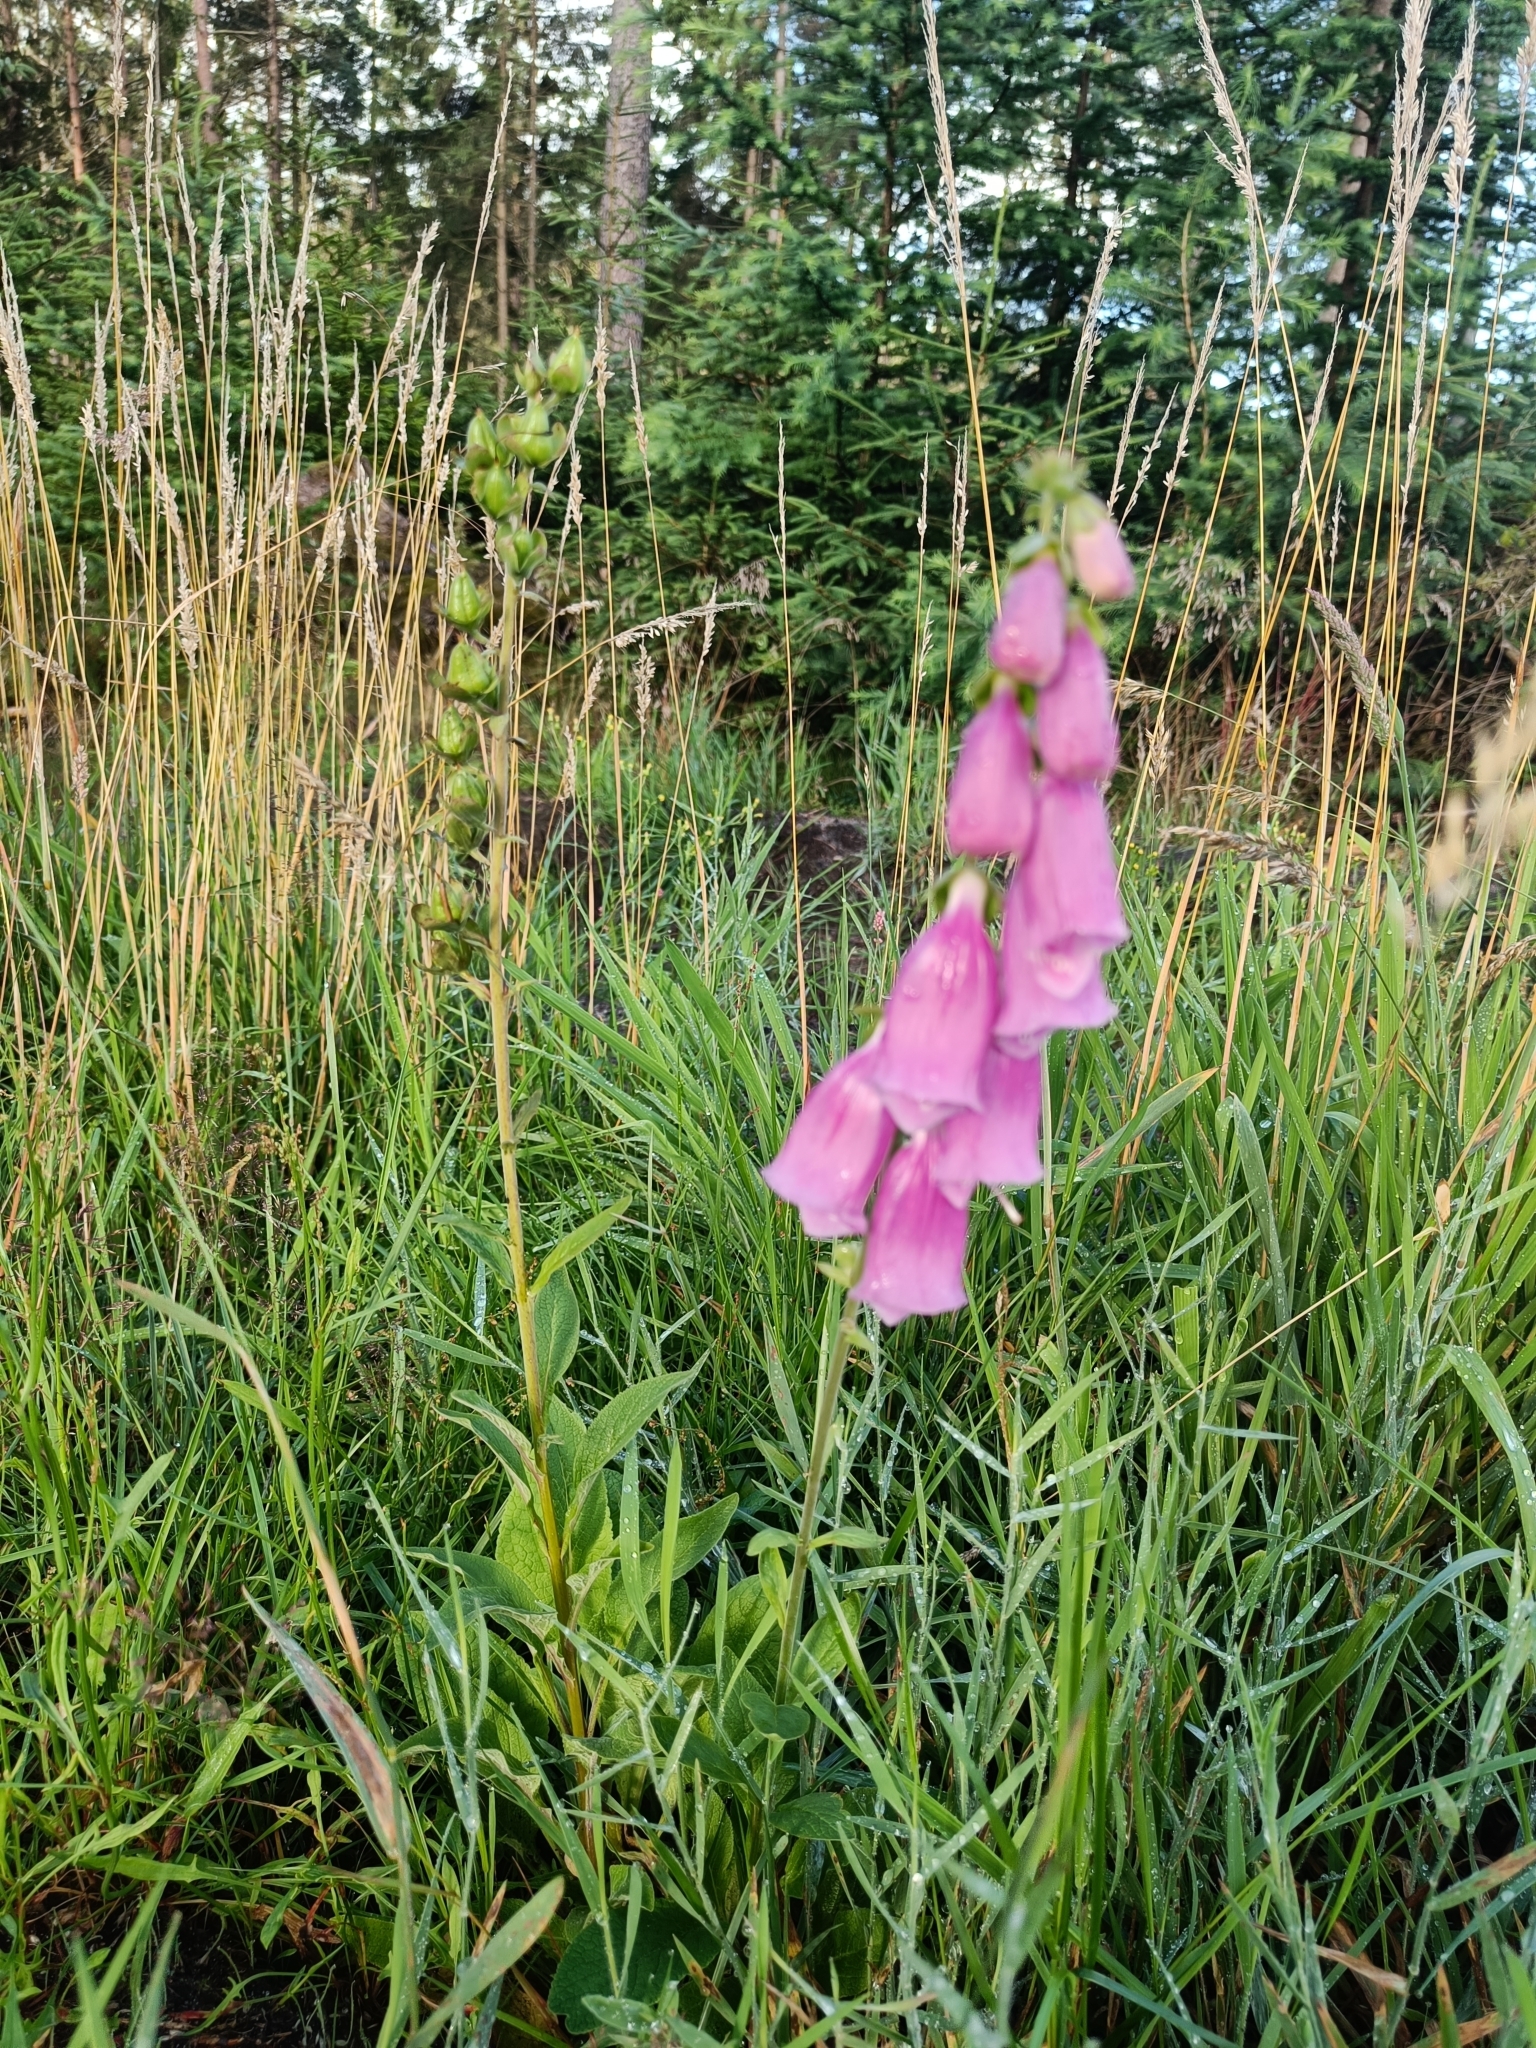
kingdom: Plantae
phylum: Tracheophyta
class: Magnoliopsida
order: Lamiales
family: Plantaginaceae
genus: Digitalis
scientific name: Digitalis purpurea
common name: Foxglove
